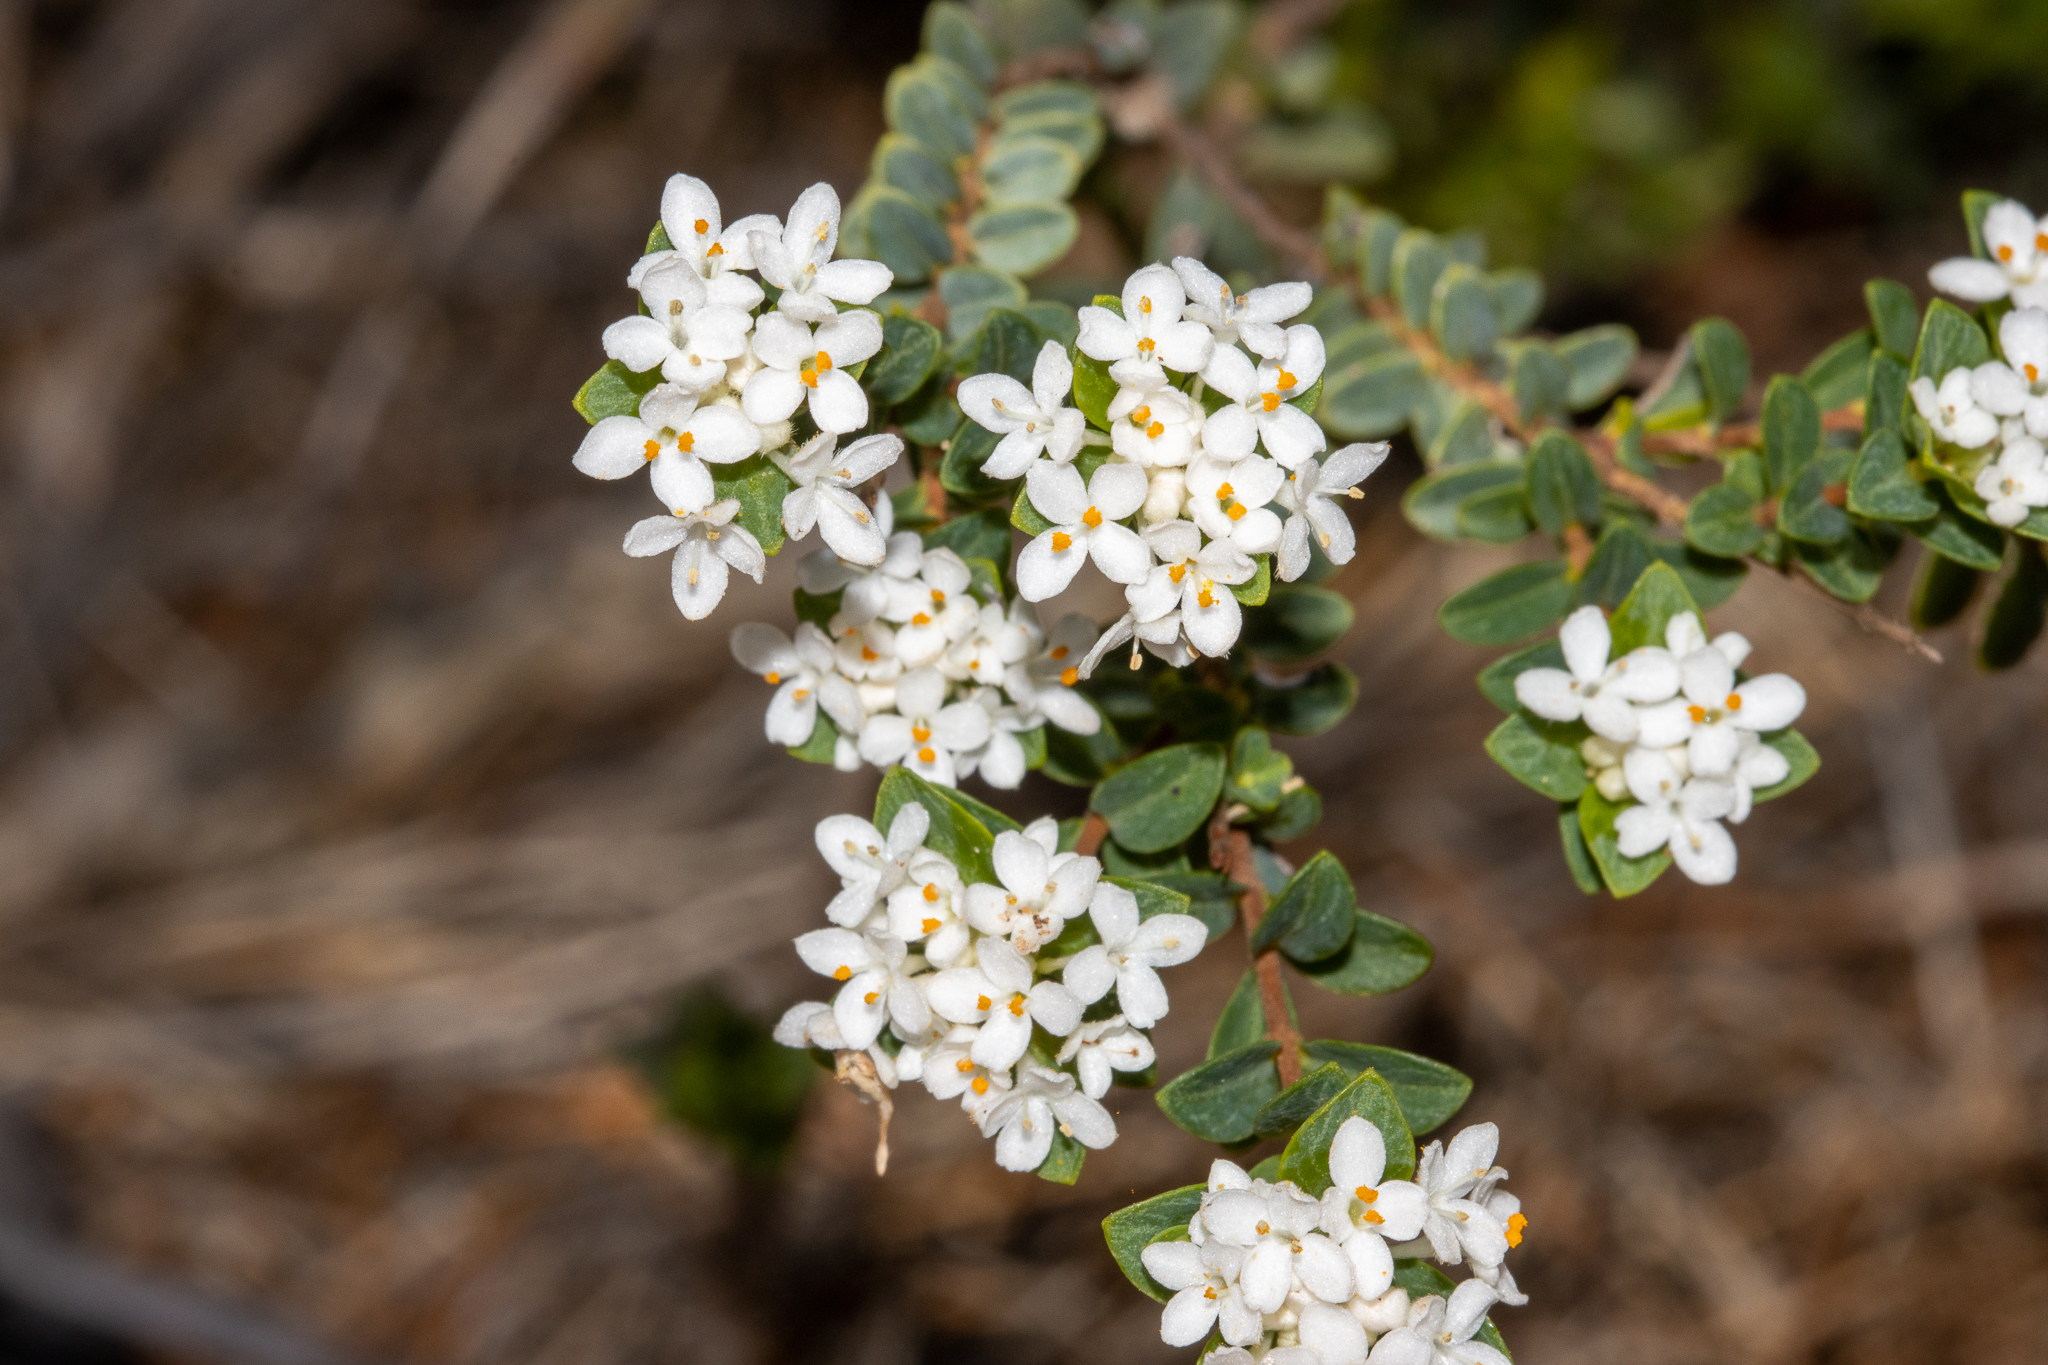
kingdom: Plantae
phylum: Tracheophyta
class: Magnoliopsida
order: Malvales
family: Thymelaeaceae
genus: Pimelea
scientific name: Pimelea flava
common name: Yellow riceflower
